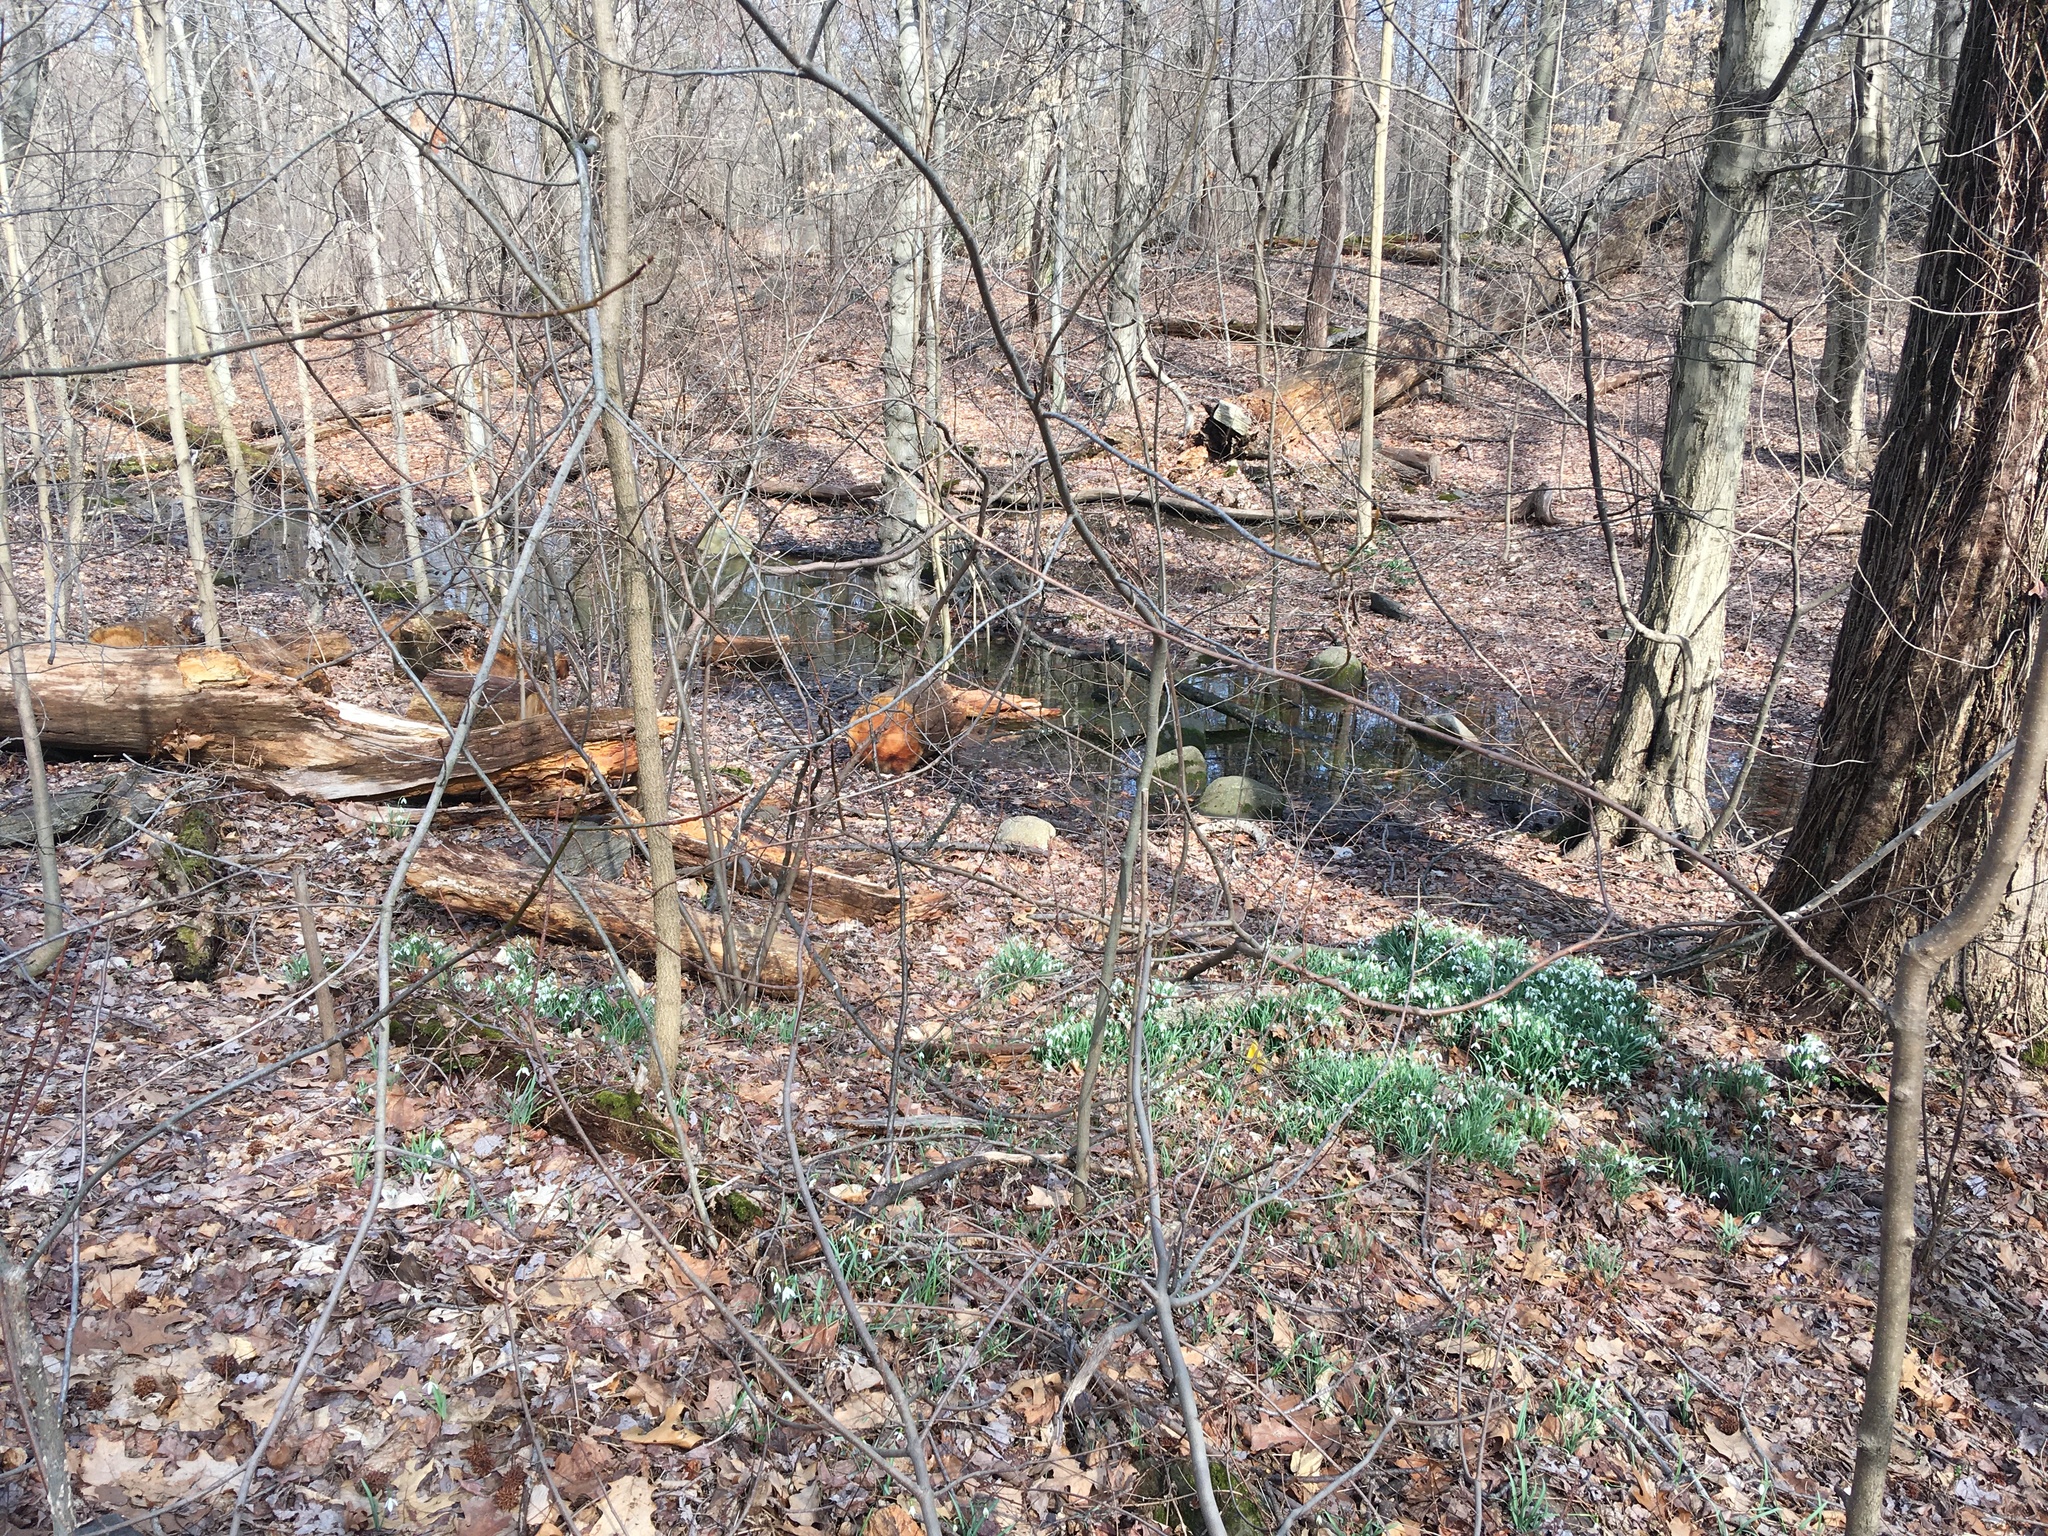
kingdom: Plantae
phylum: Tracheophyta
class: Liliopsida
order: Asparagales
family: Amaryllidaceae
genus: Galanthus
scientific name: Galanthus nivalis
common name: Snowdrop
